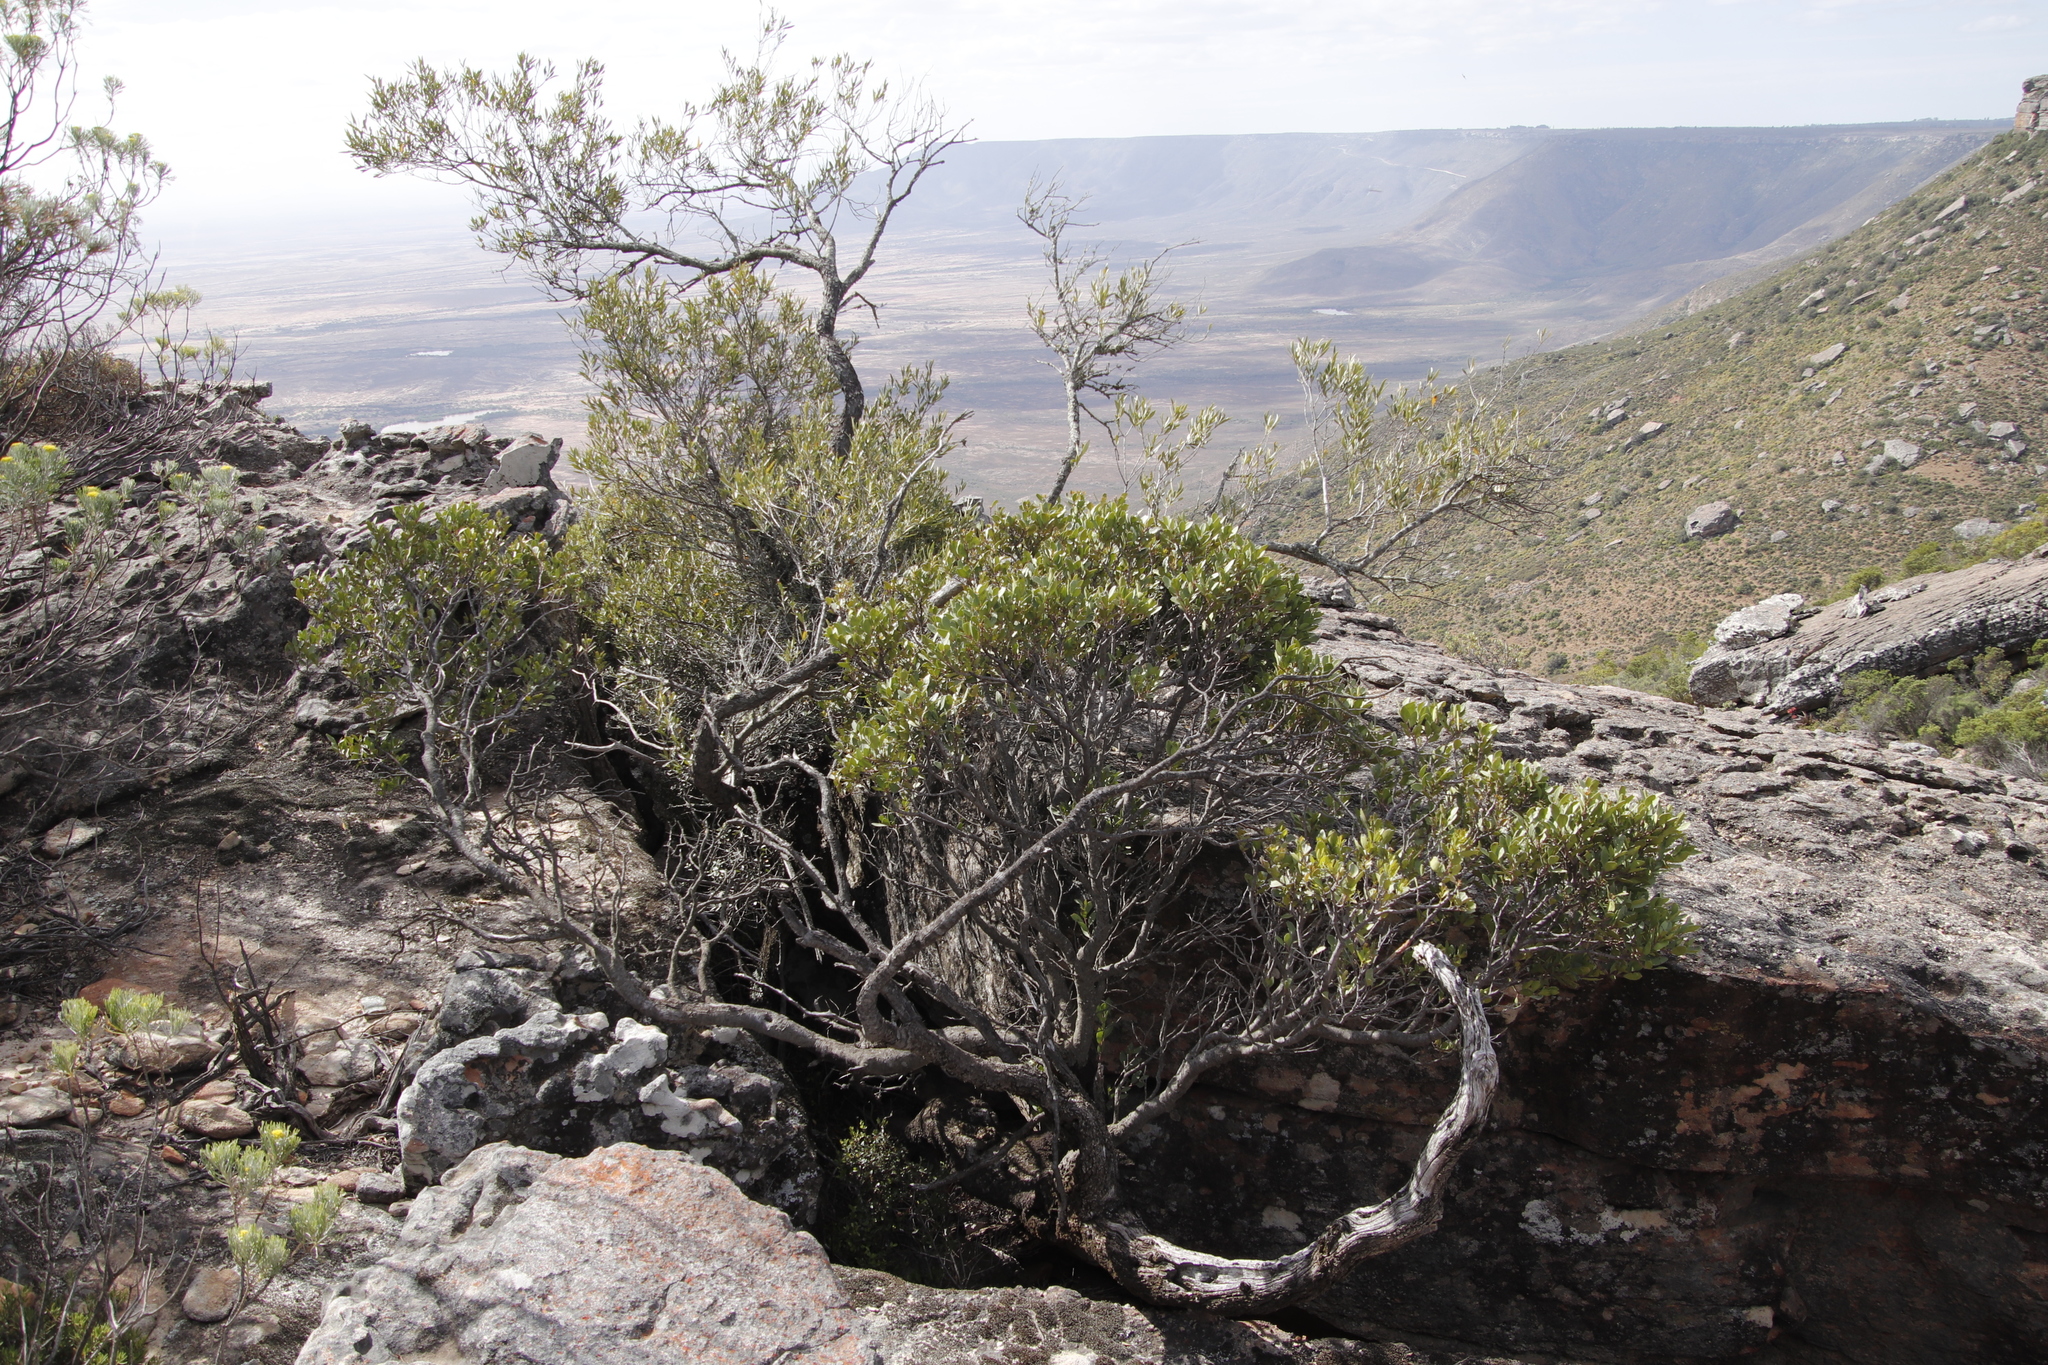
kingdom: Plantae
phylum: Tracheophyta
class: Magnoliopsida
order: Celastrales
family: Celastraceae
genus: Gymnosporia
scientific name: Gymnosporia laurina
